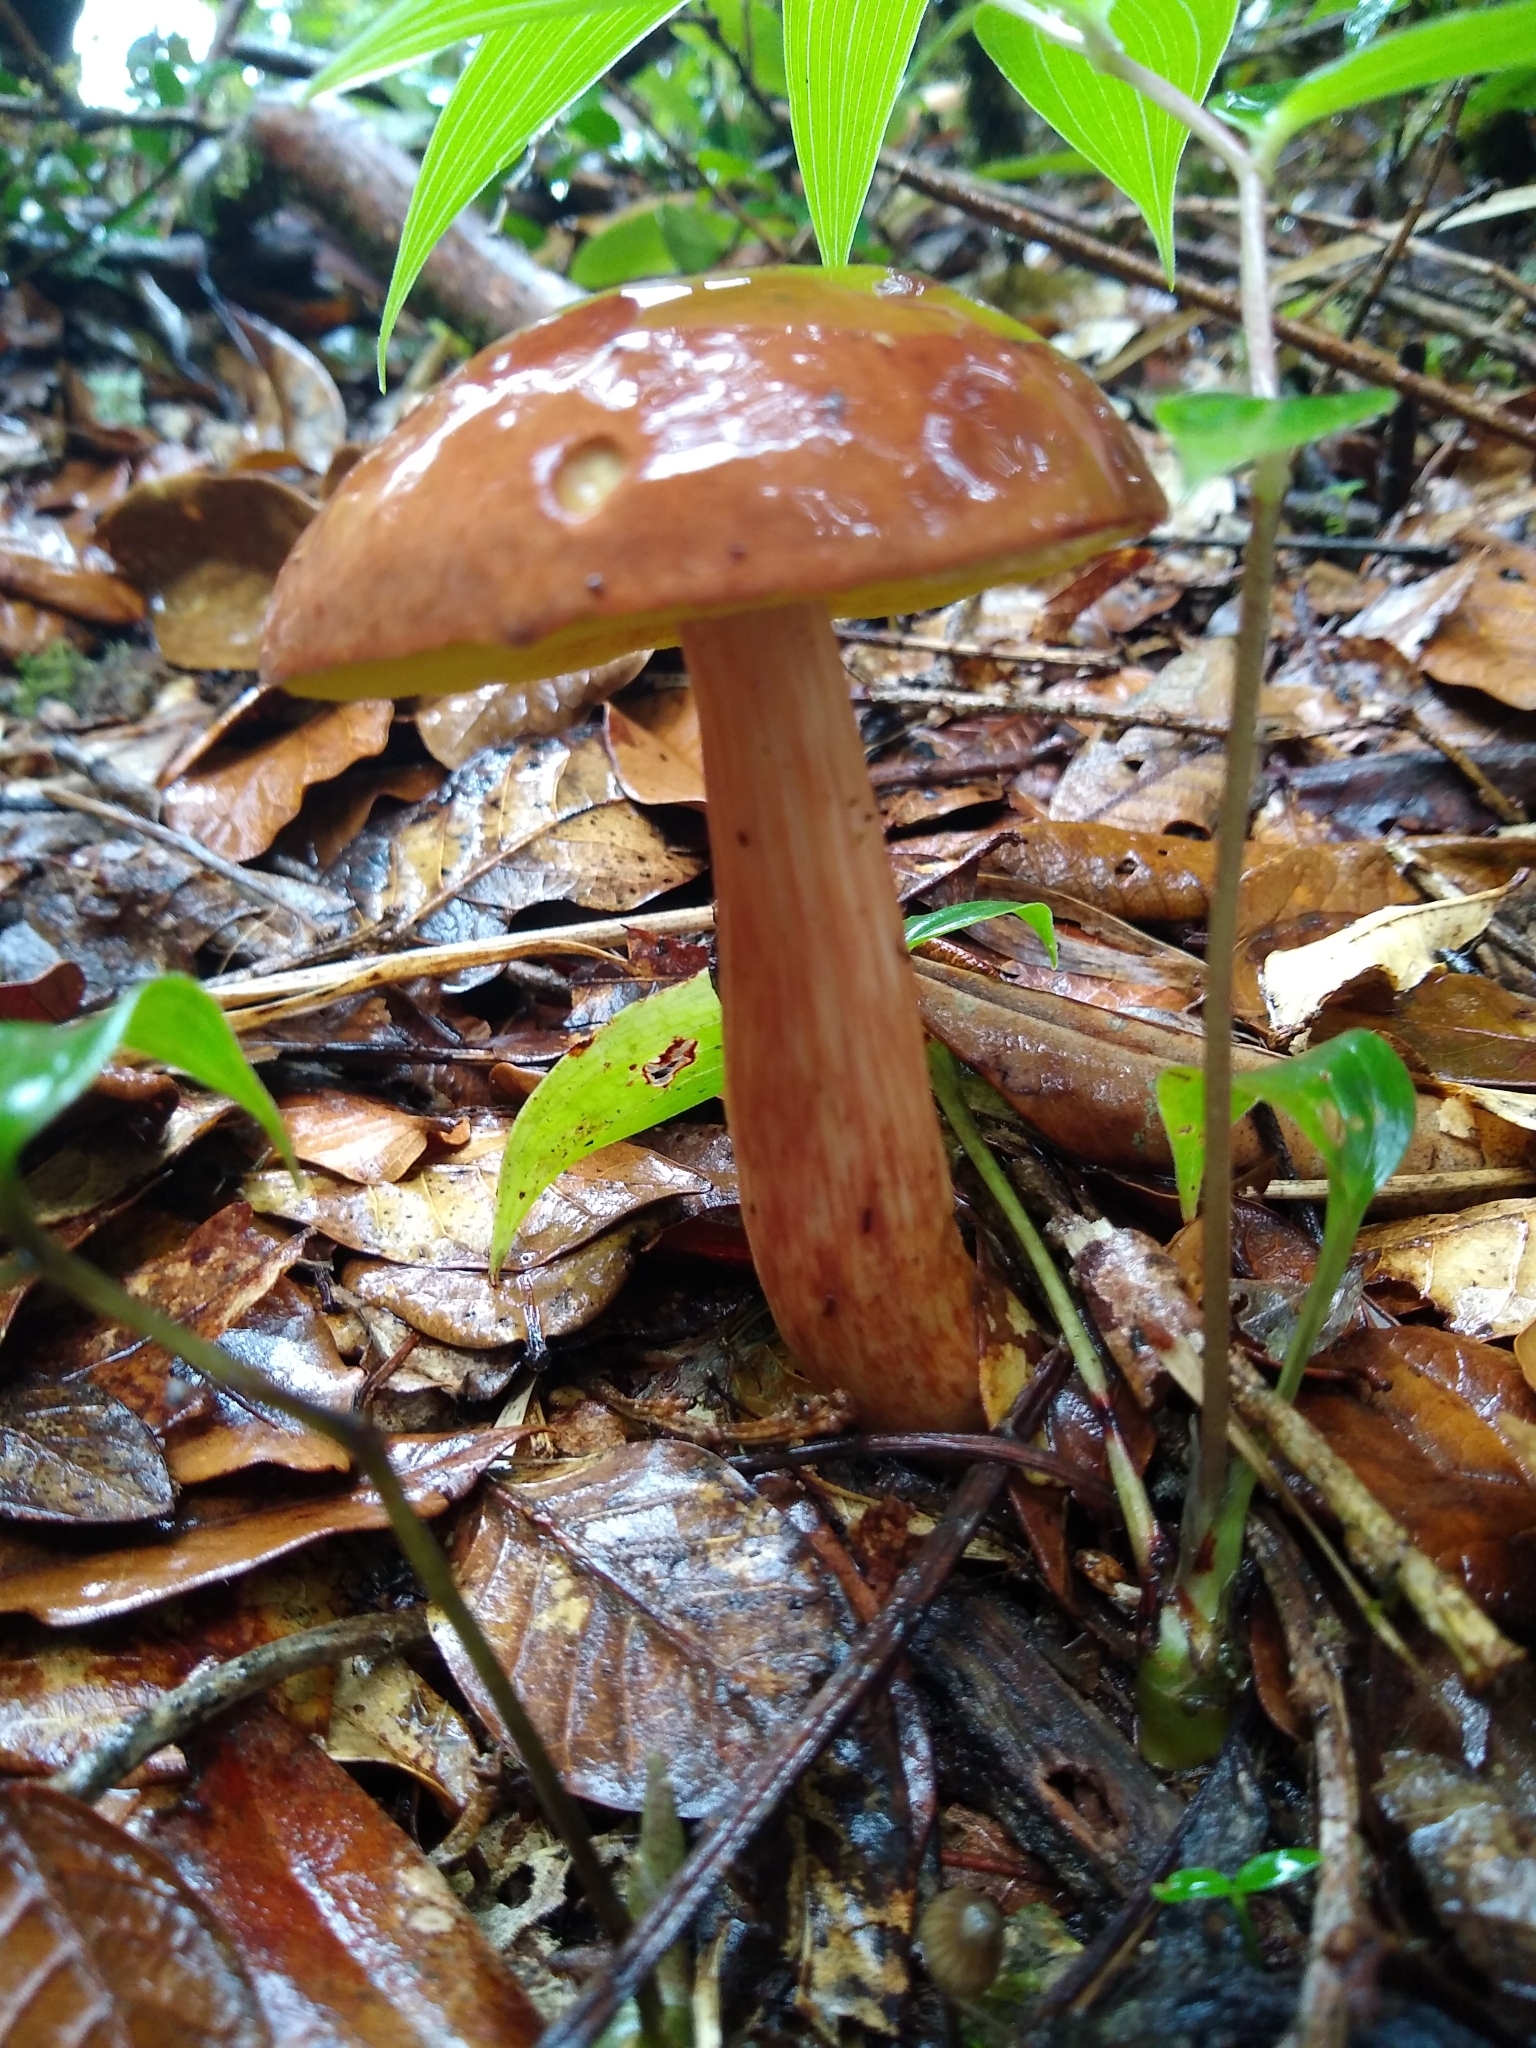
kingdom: Fungi
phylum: Basidiomycota
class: Agaricomycetes
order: Boletales
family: Boletaceae
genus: Aureoboletus
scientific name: Aureoboletus auriporus
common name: Sour gold-pored bolete
